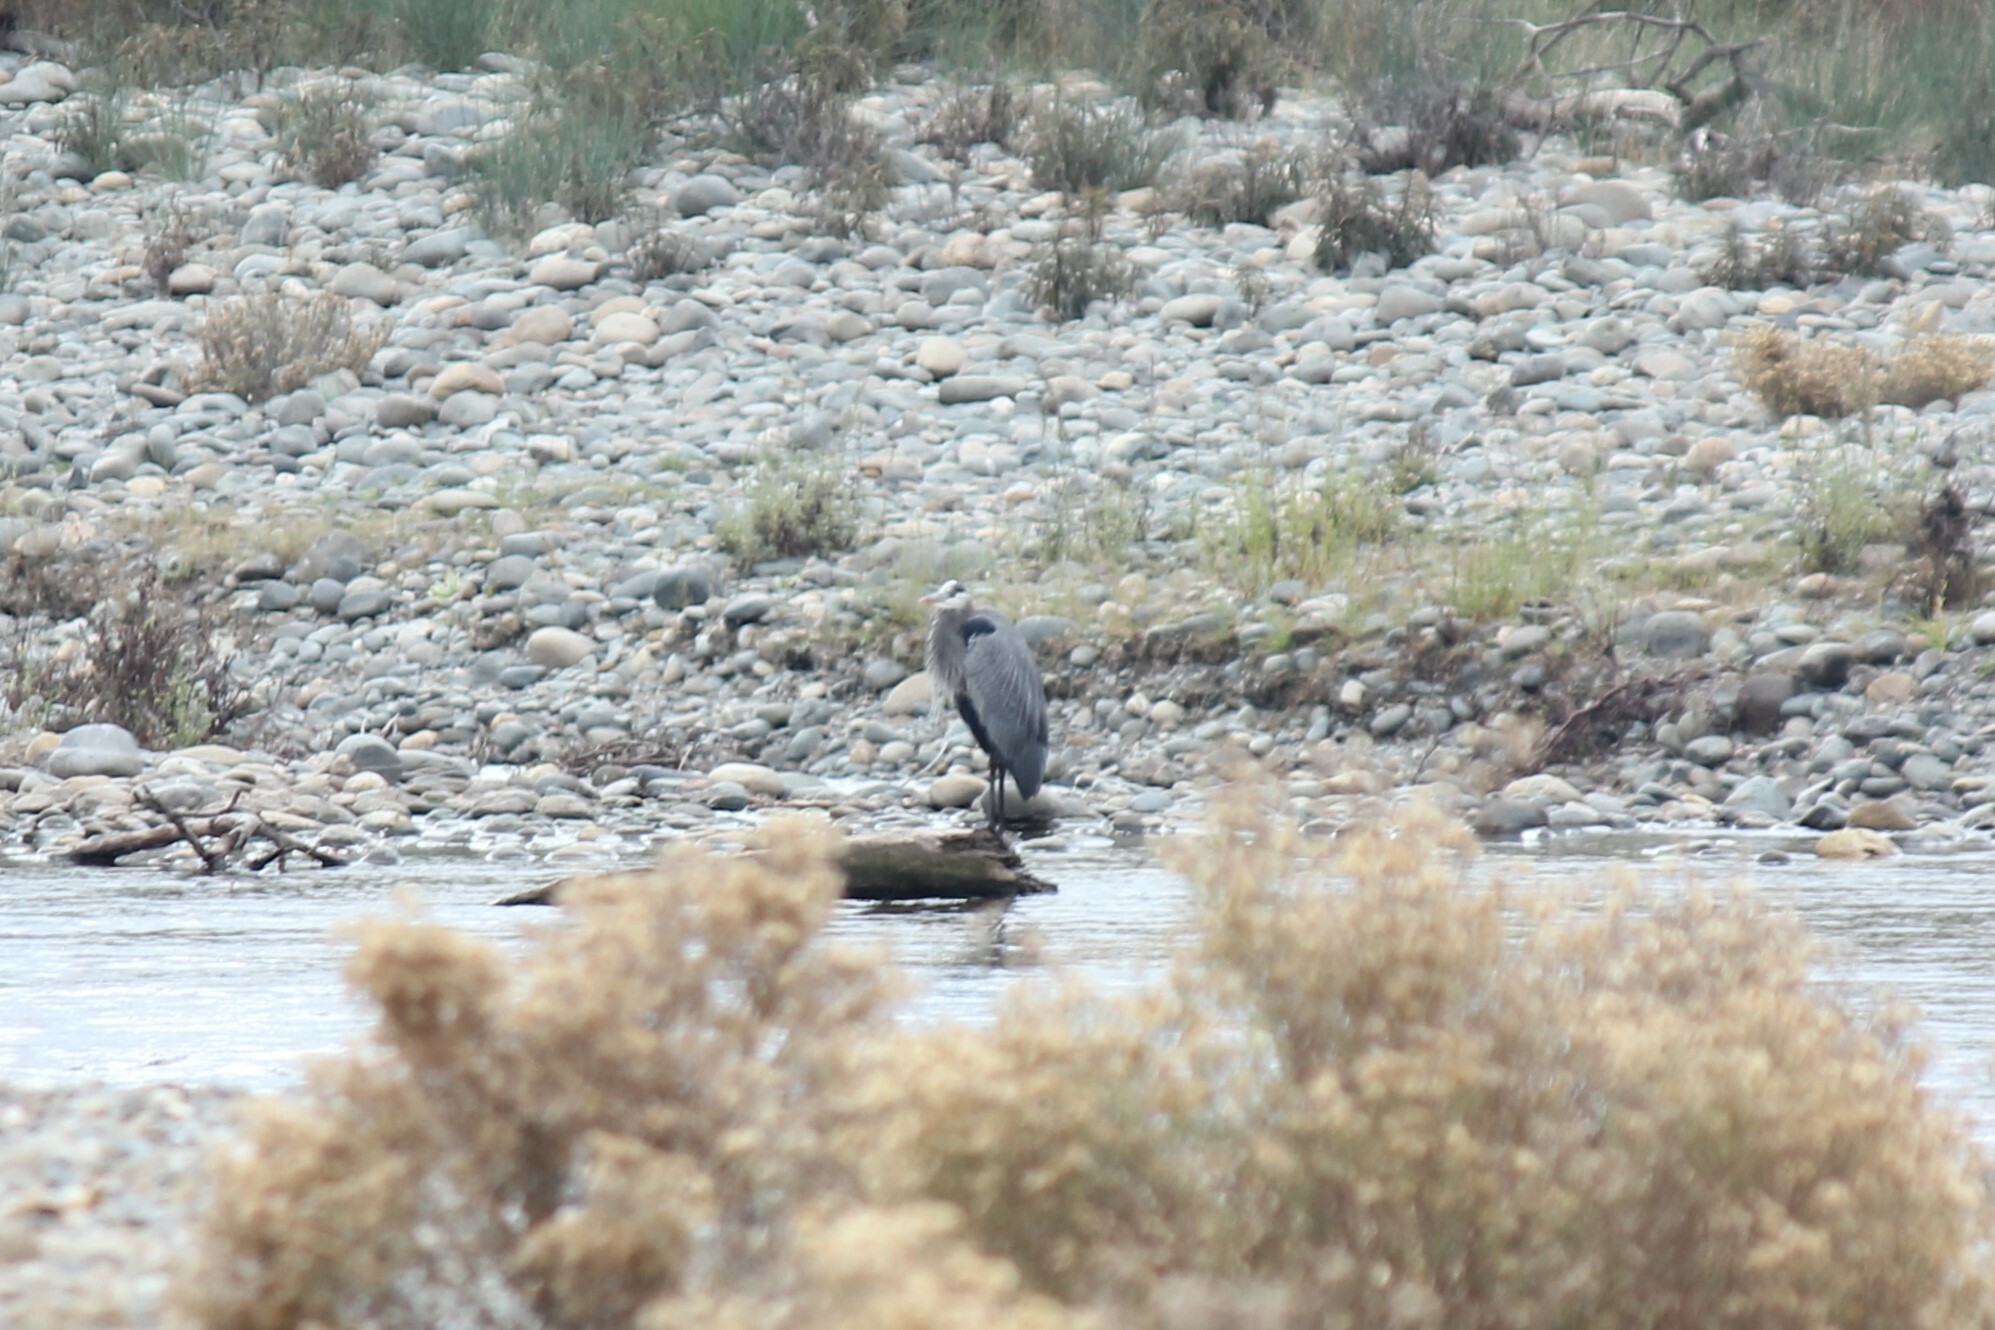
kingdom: Animalia
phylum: Chordata
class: Aves
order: Pelecaniformes
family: Ardeidae
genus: Ardea
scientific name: Ardea herodias
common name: Great blue heron
